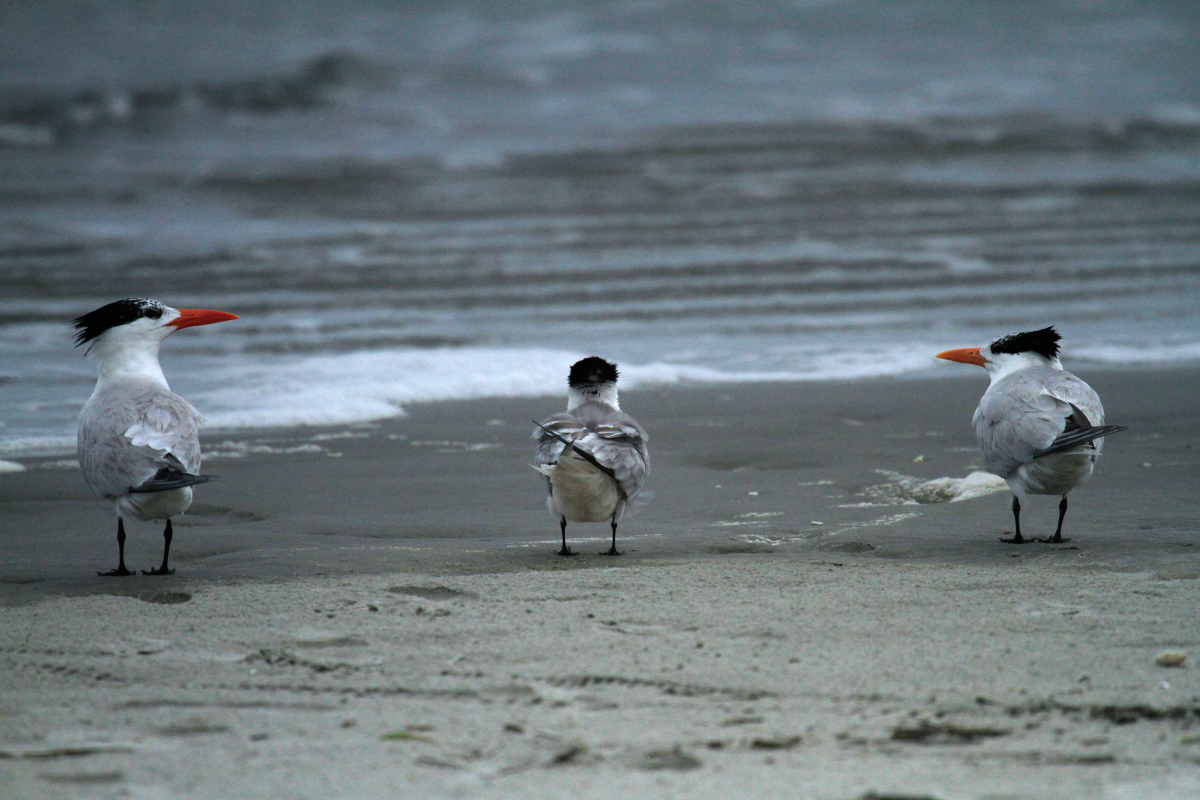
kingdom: Animalia
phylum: Chordata
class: Aves
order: Charadriiformes
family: Laridae
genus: Thalasseus
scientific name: Thalasseus maximus
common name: Royal tern
